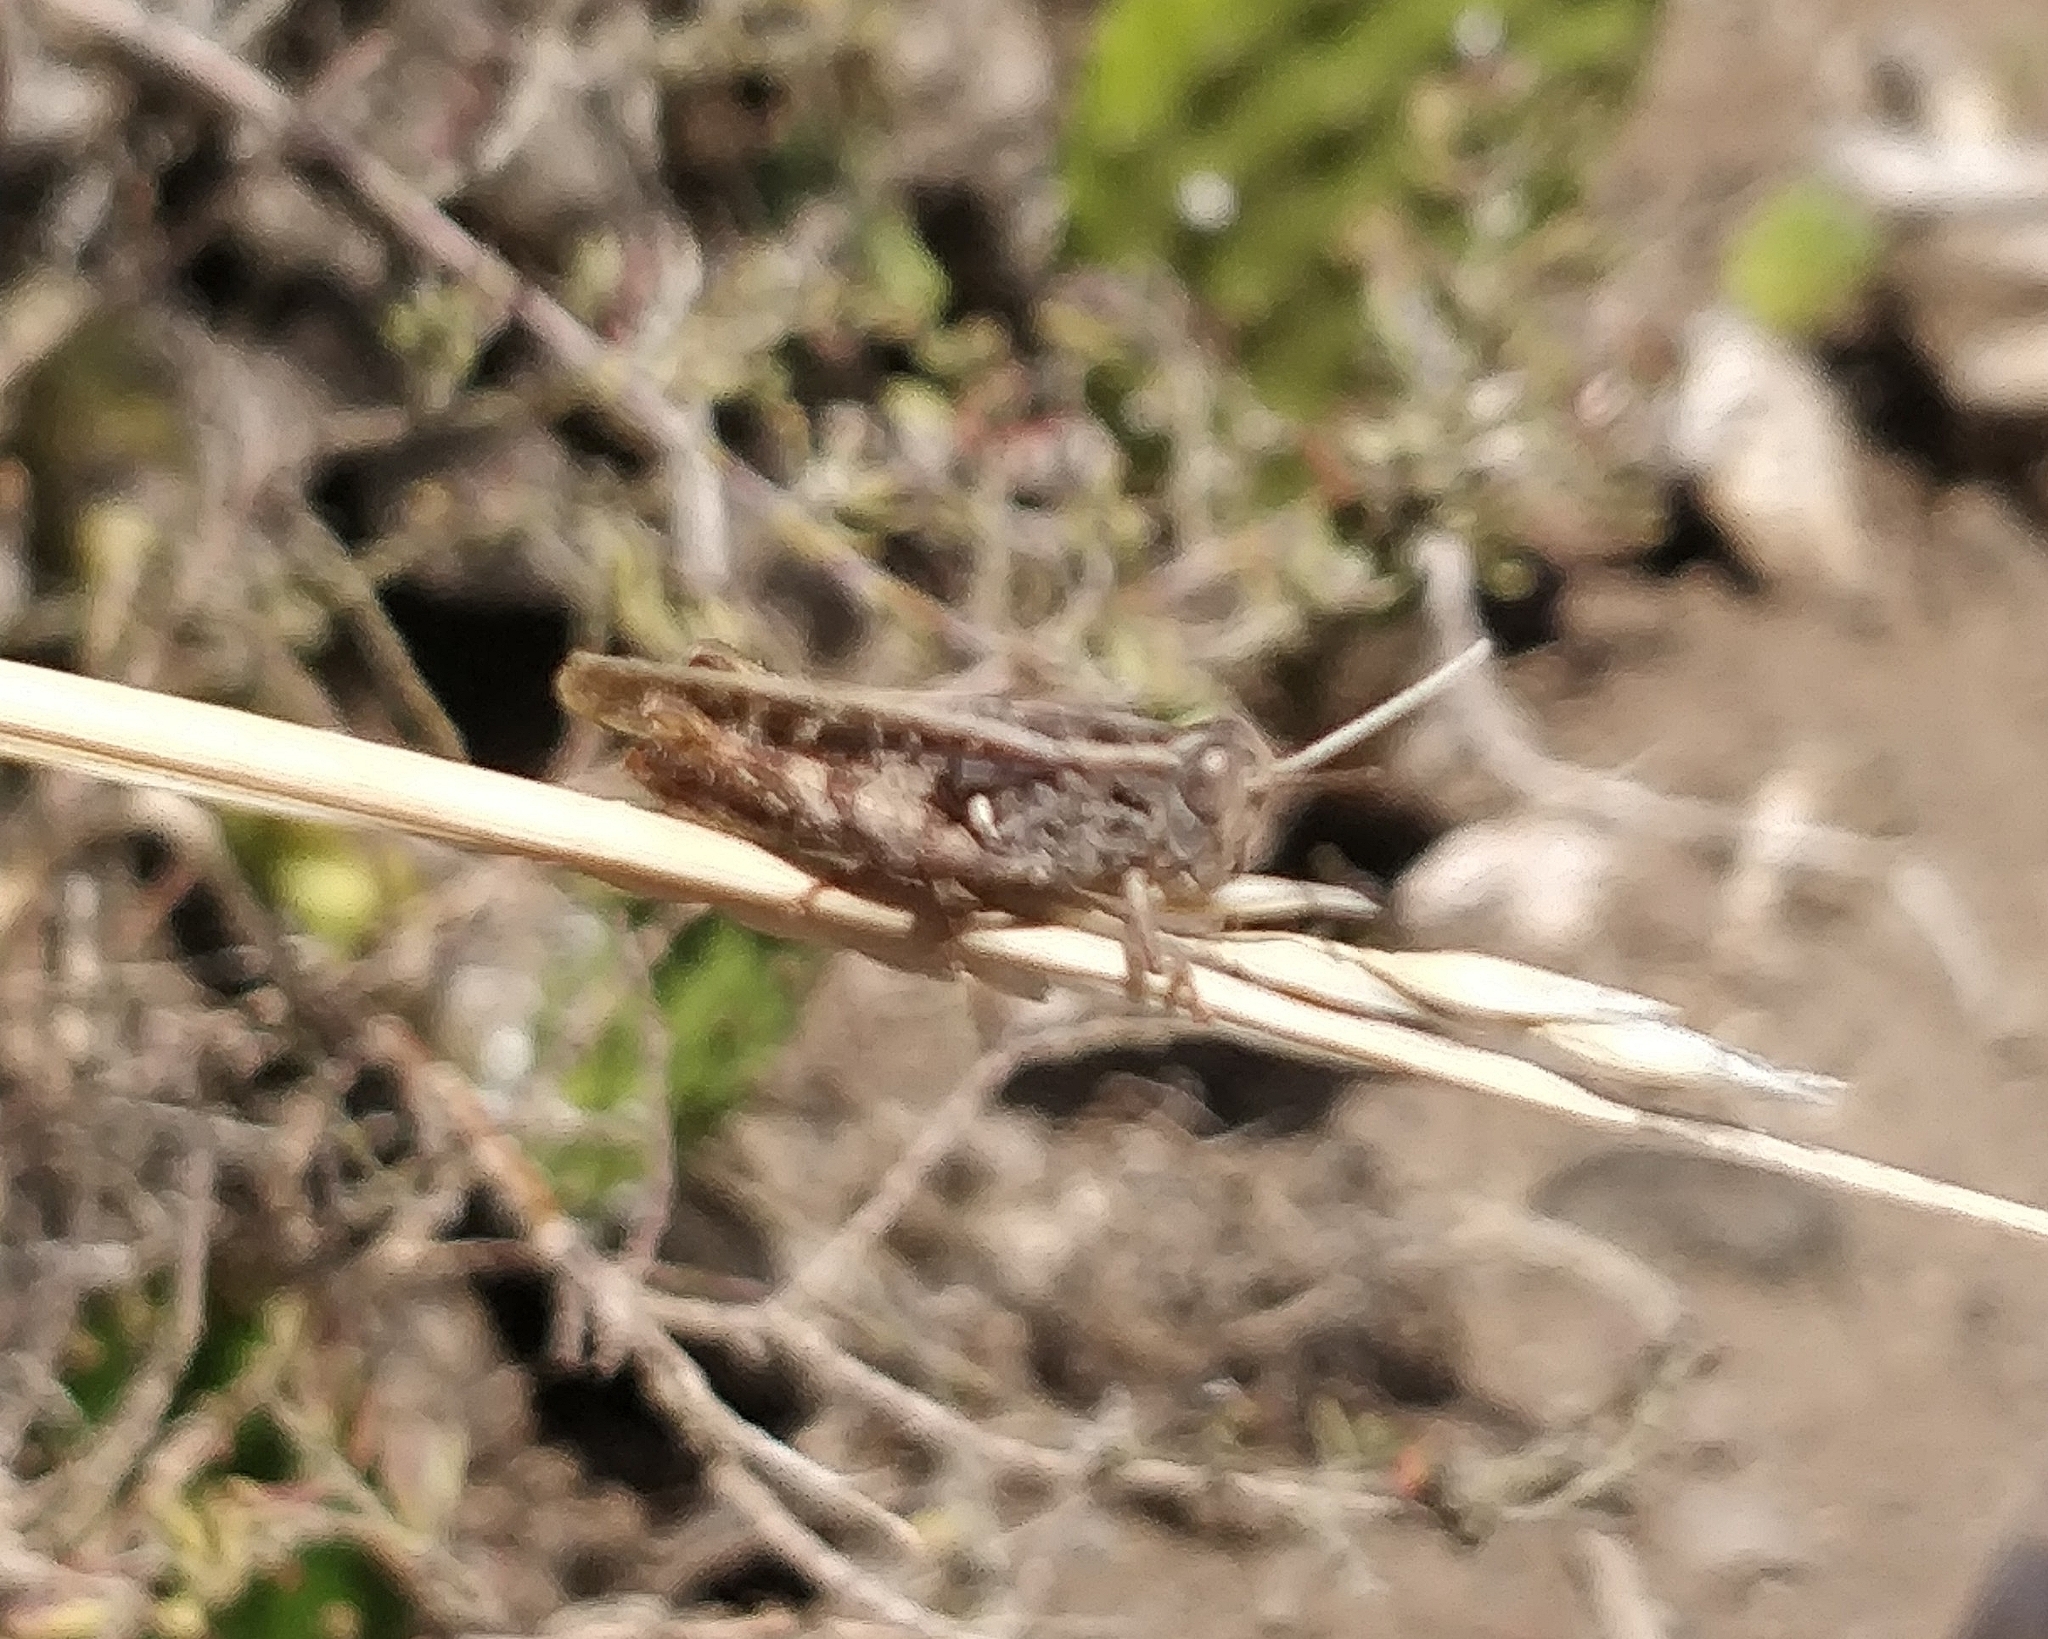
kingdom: Animalia
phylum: Arthropoda
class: Insecta
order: Orthoptera
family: Acrididae
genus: Calliptamus
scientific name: Calliptamus plebeius
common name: Canarian pincer grasshopper
